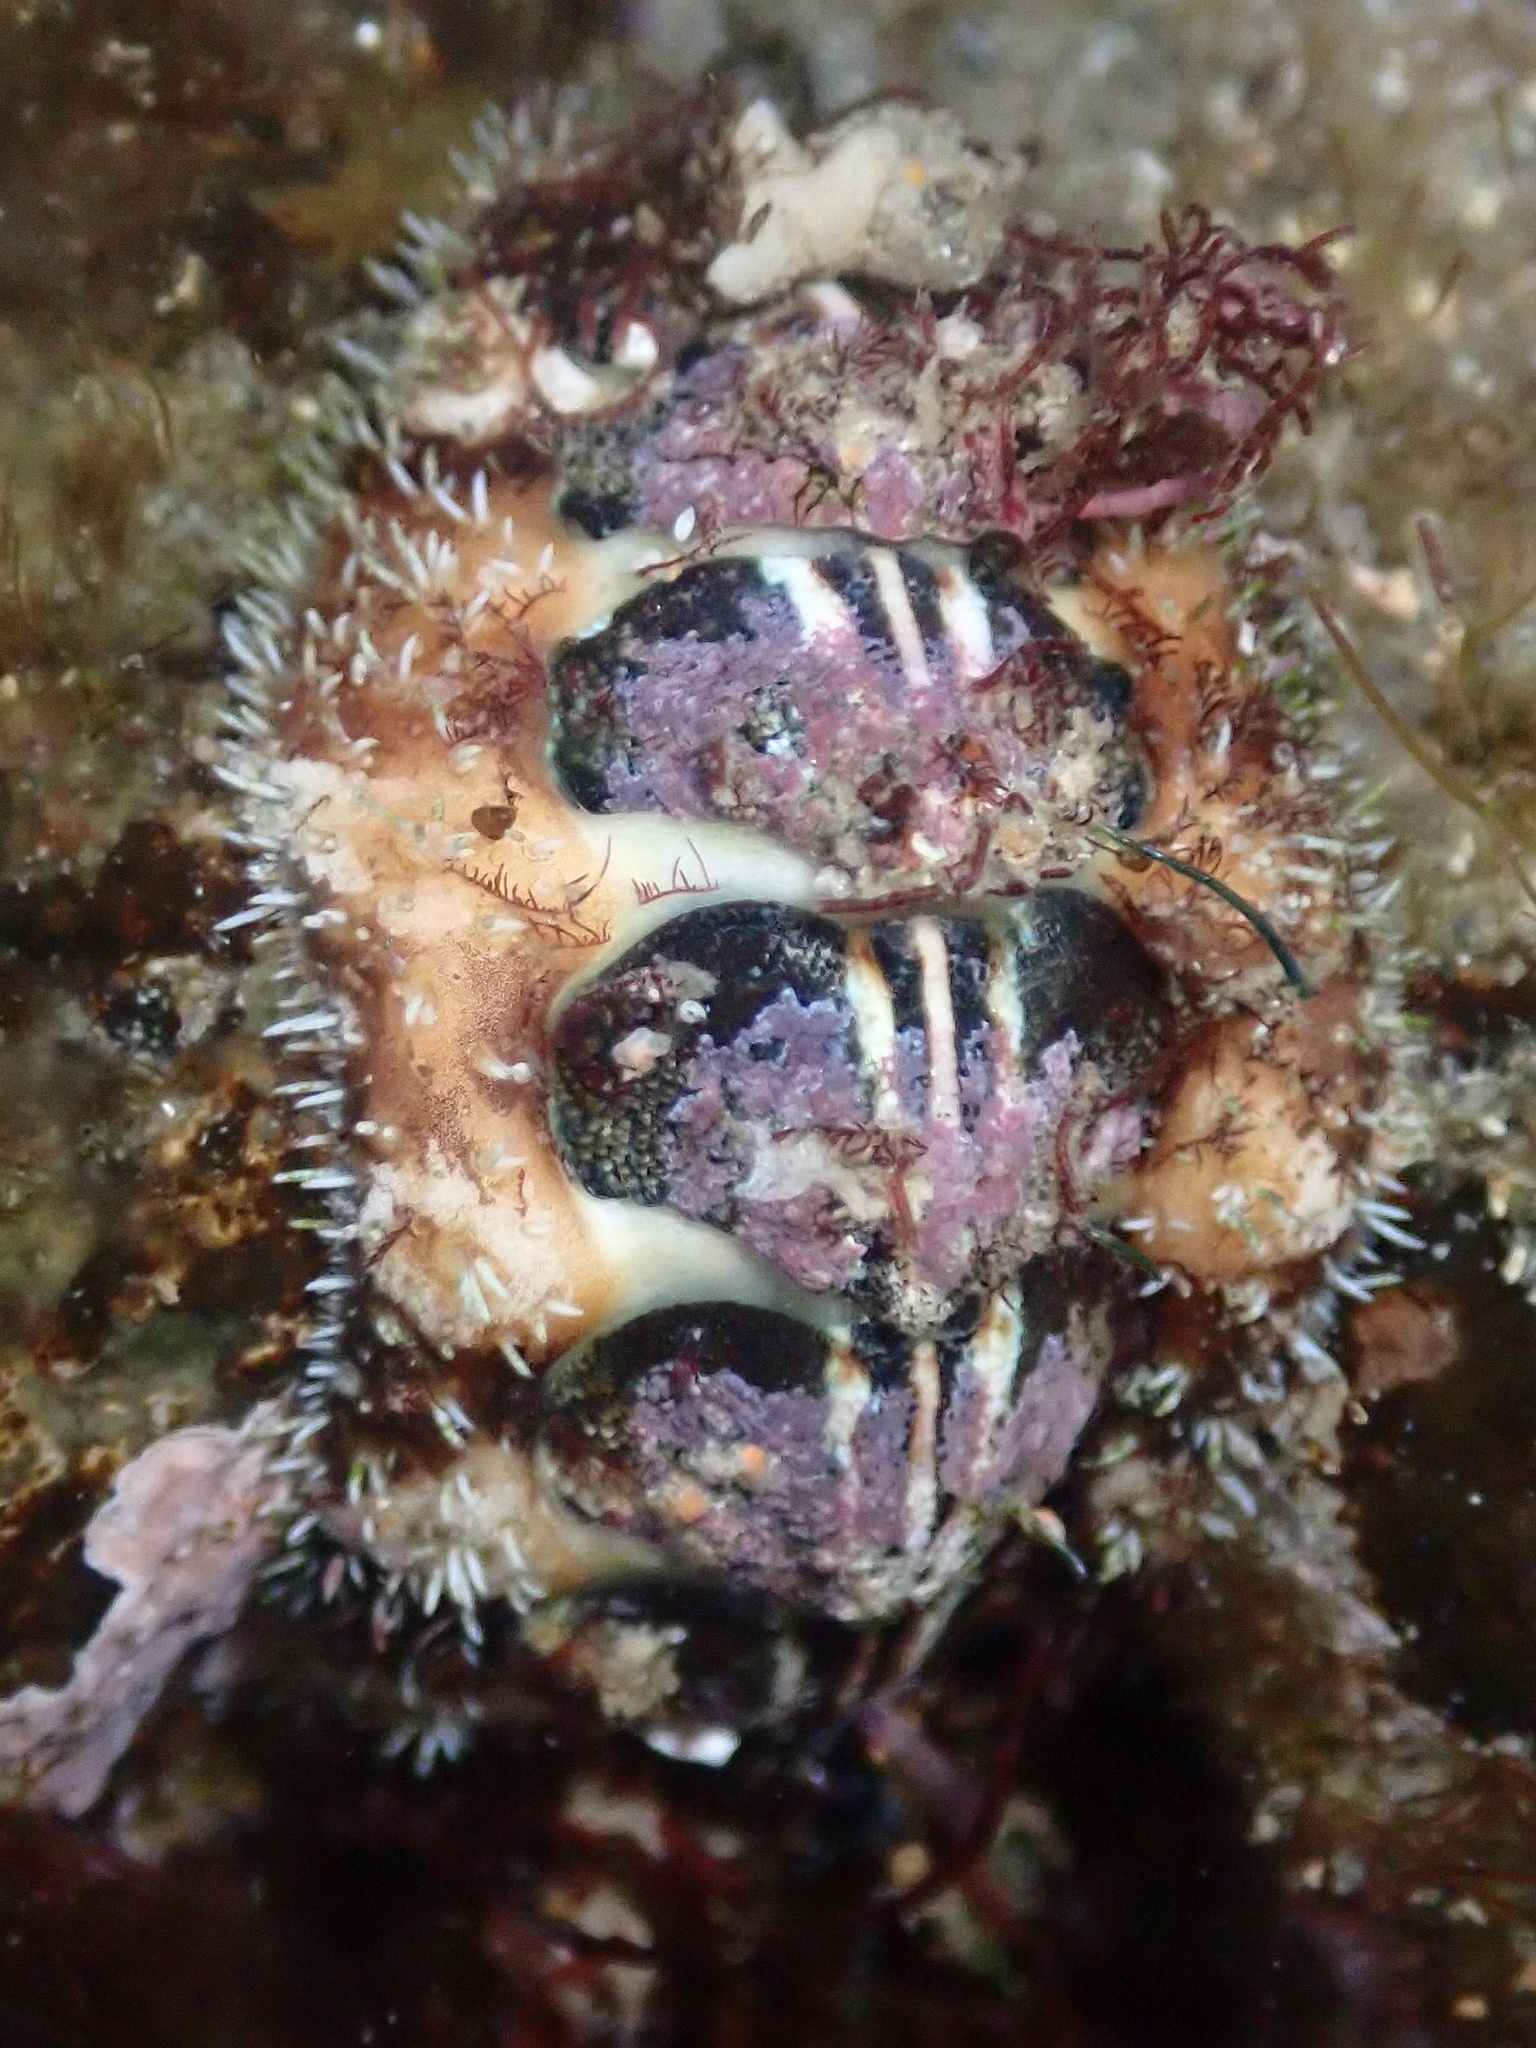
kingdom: Animalia
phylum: Mollusca
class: Polyplacophora
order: Chitonida
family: Tonicellidae
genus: Nuttallina
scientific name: Nuttallina californica
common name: California nuttall chiton
